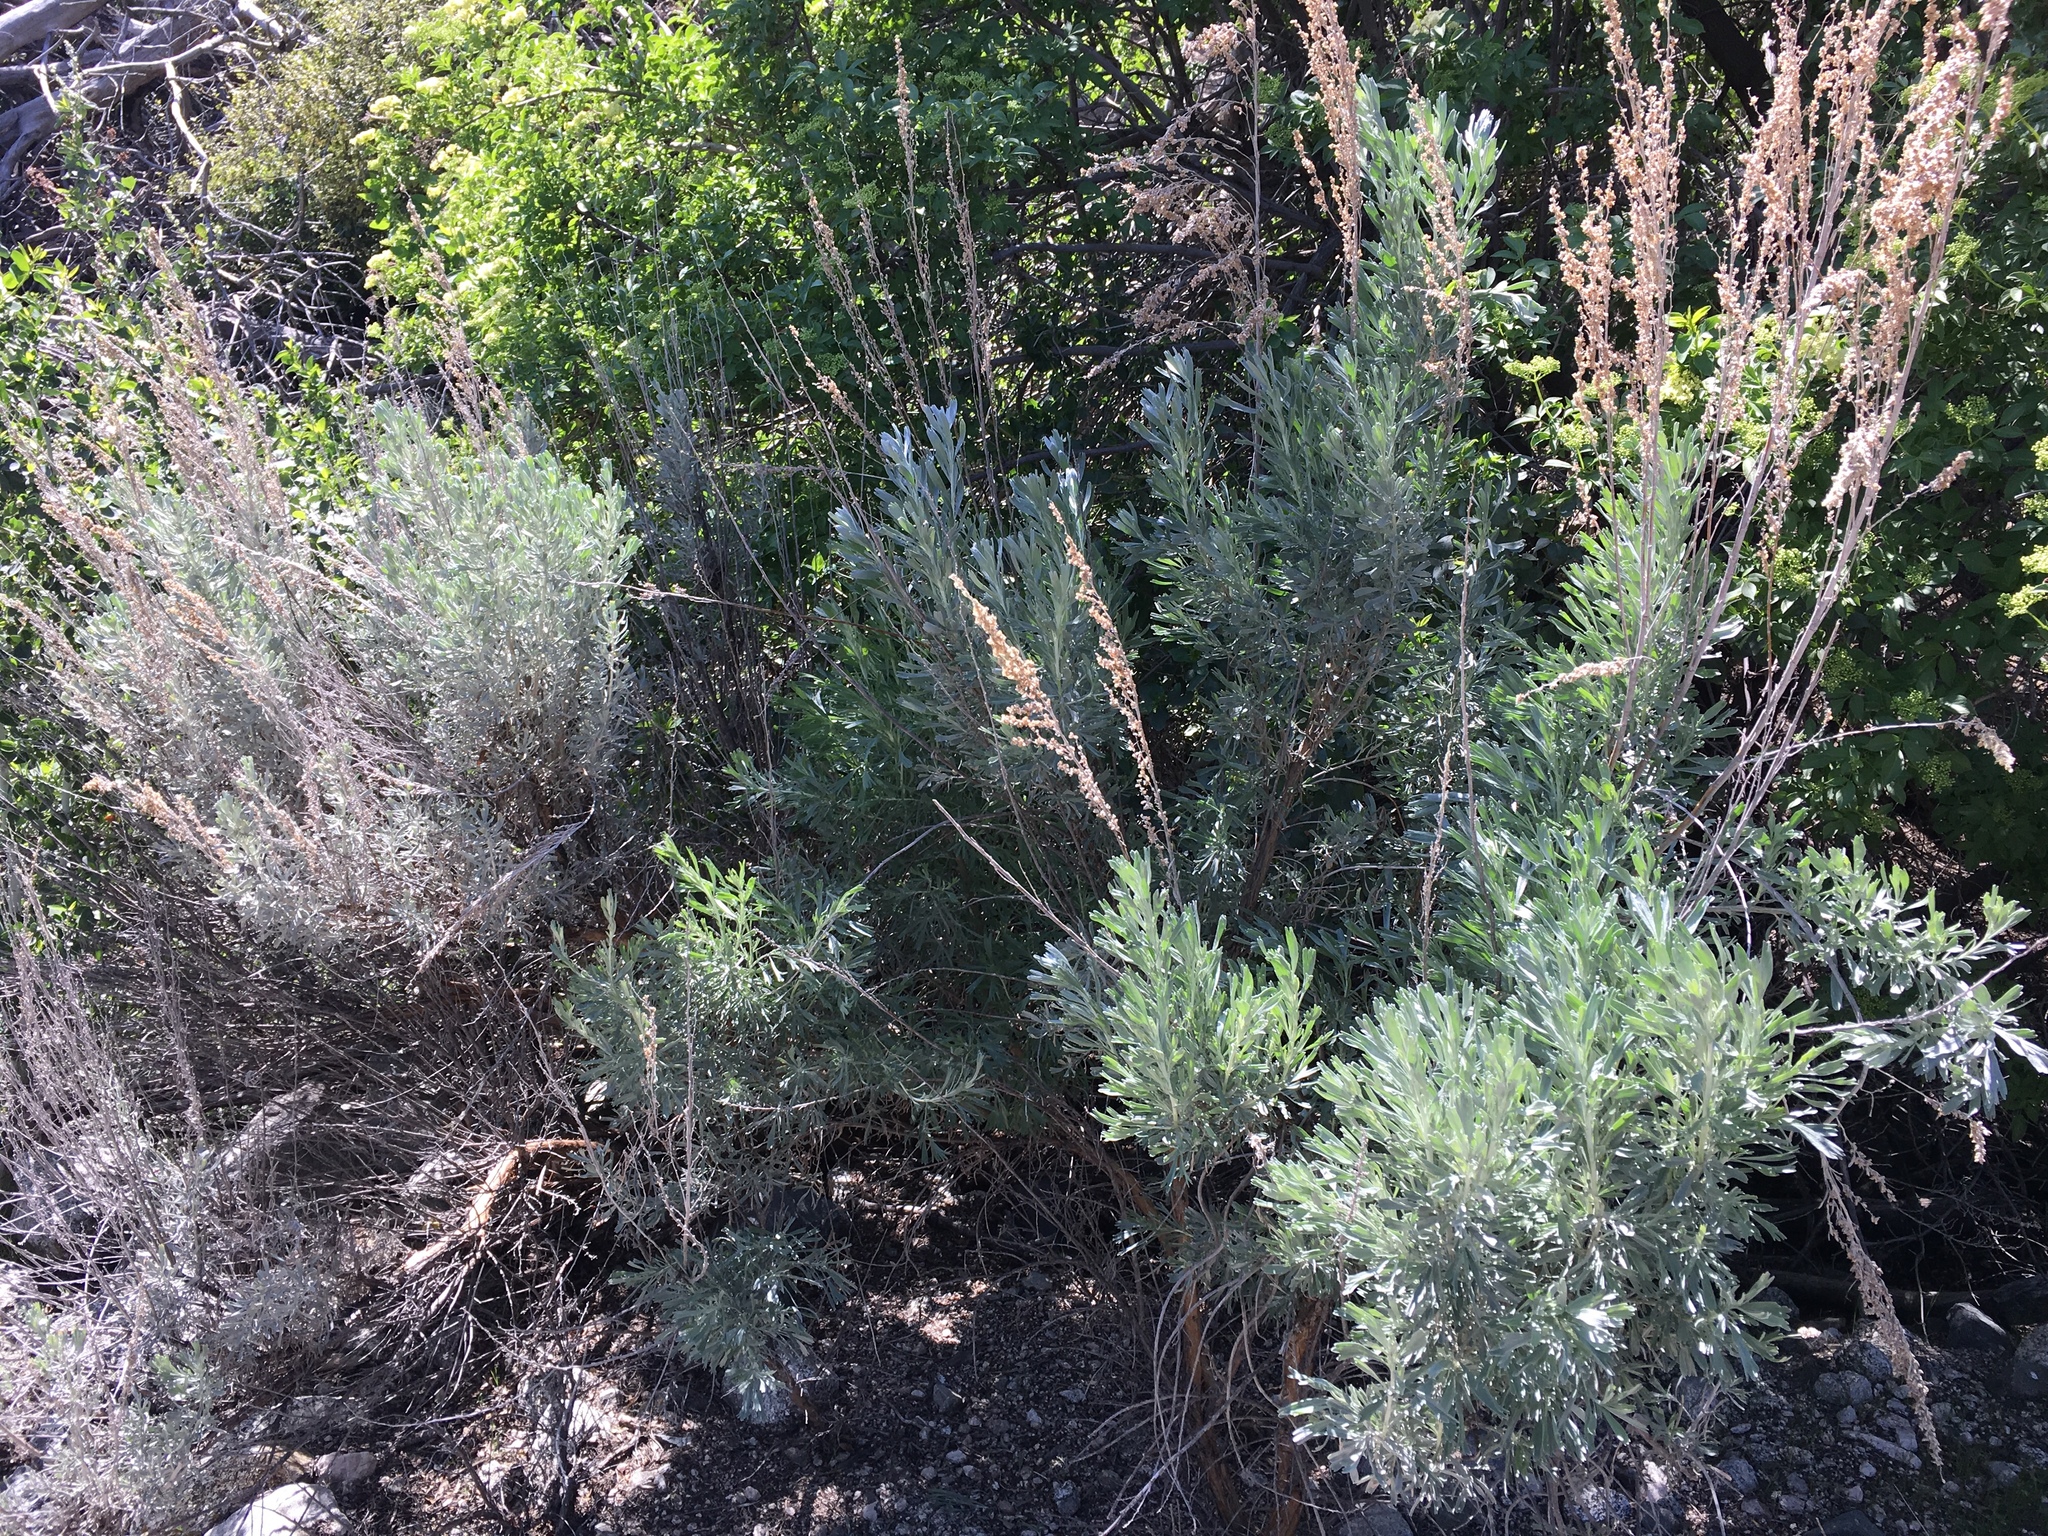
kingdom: Plantae
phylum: Tracheophyta
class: Magnoliopsida
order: Asterales
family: Asteraceae
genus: Artemisia
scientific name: Artemisia tridentata
